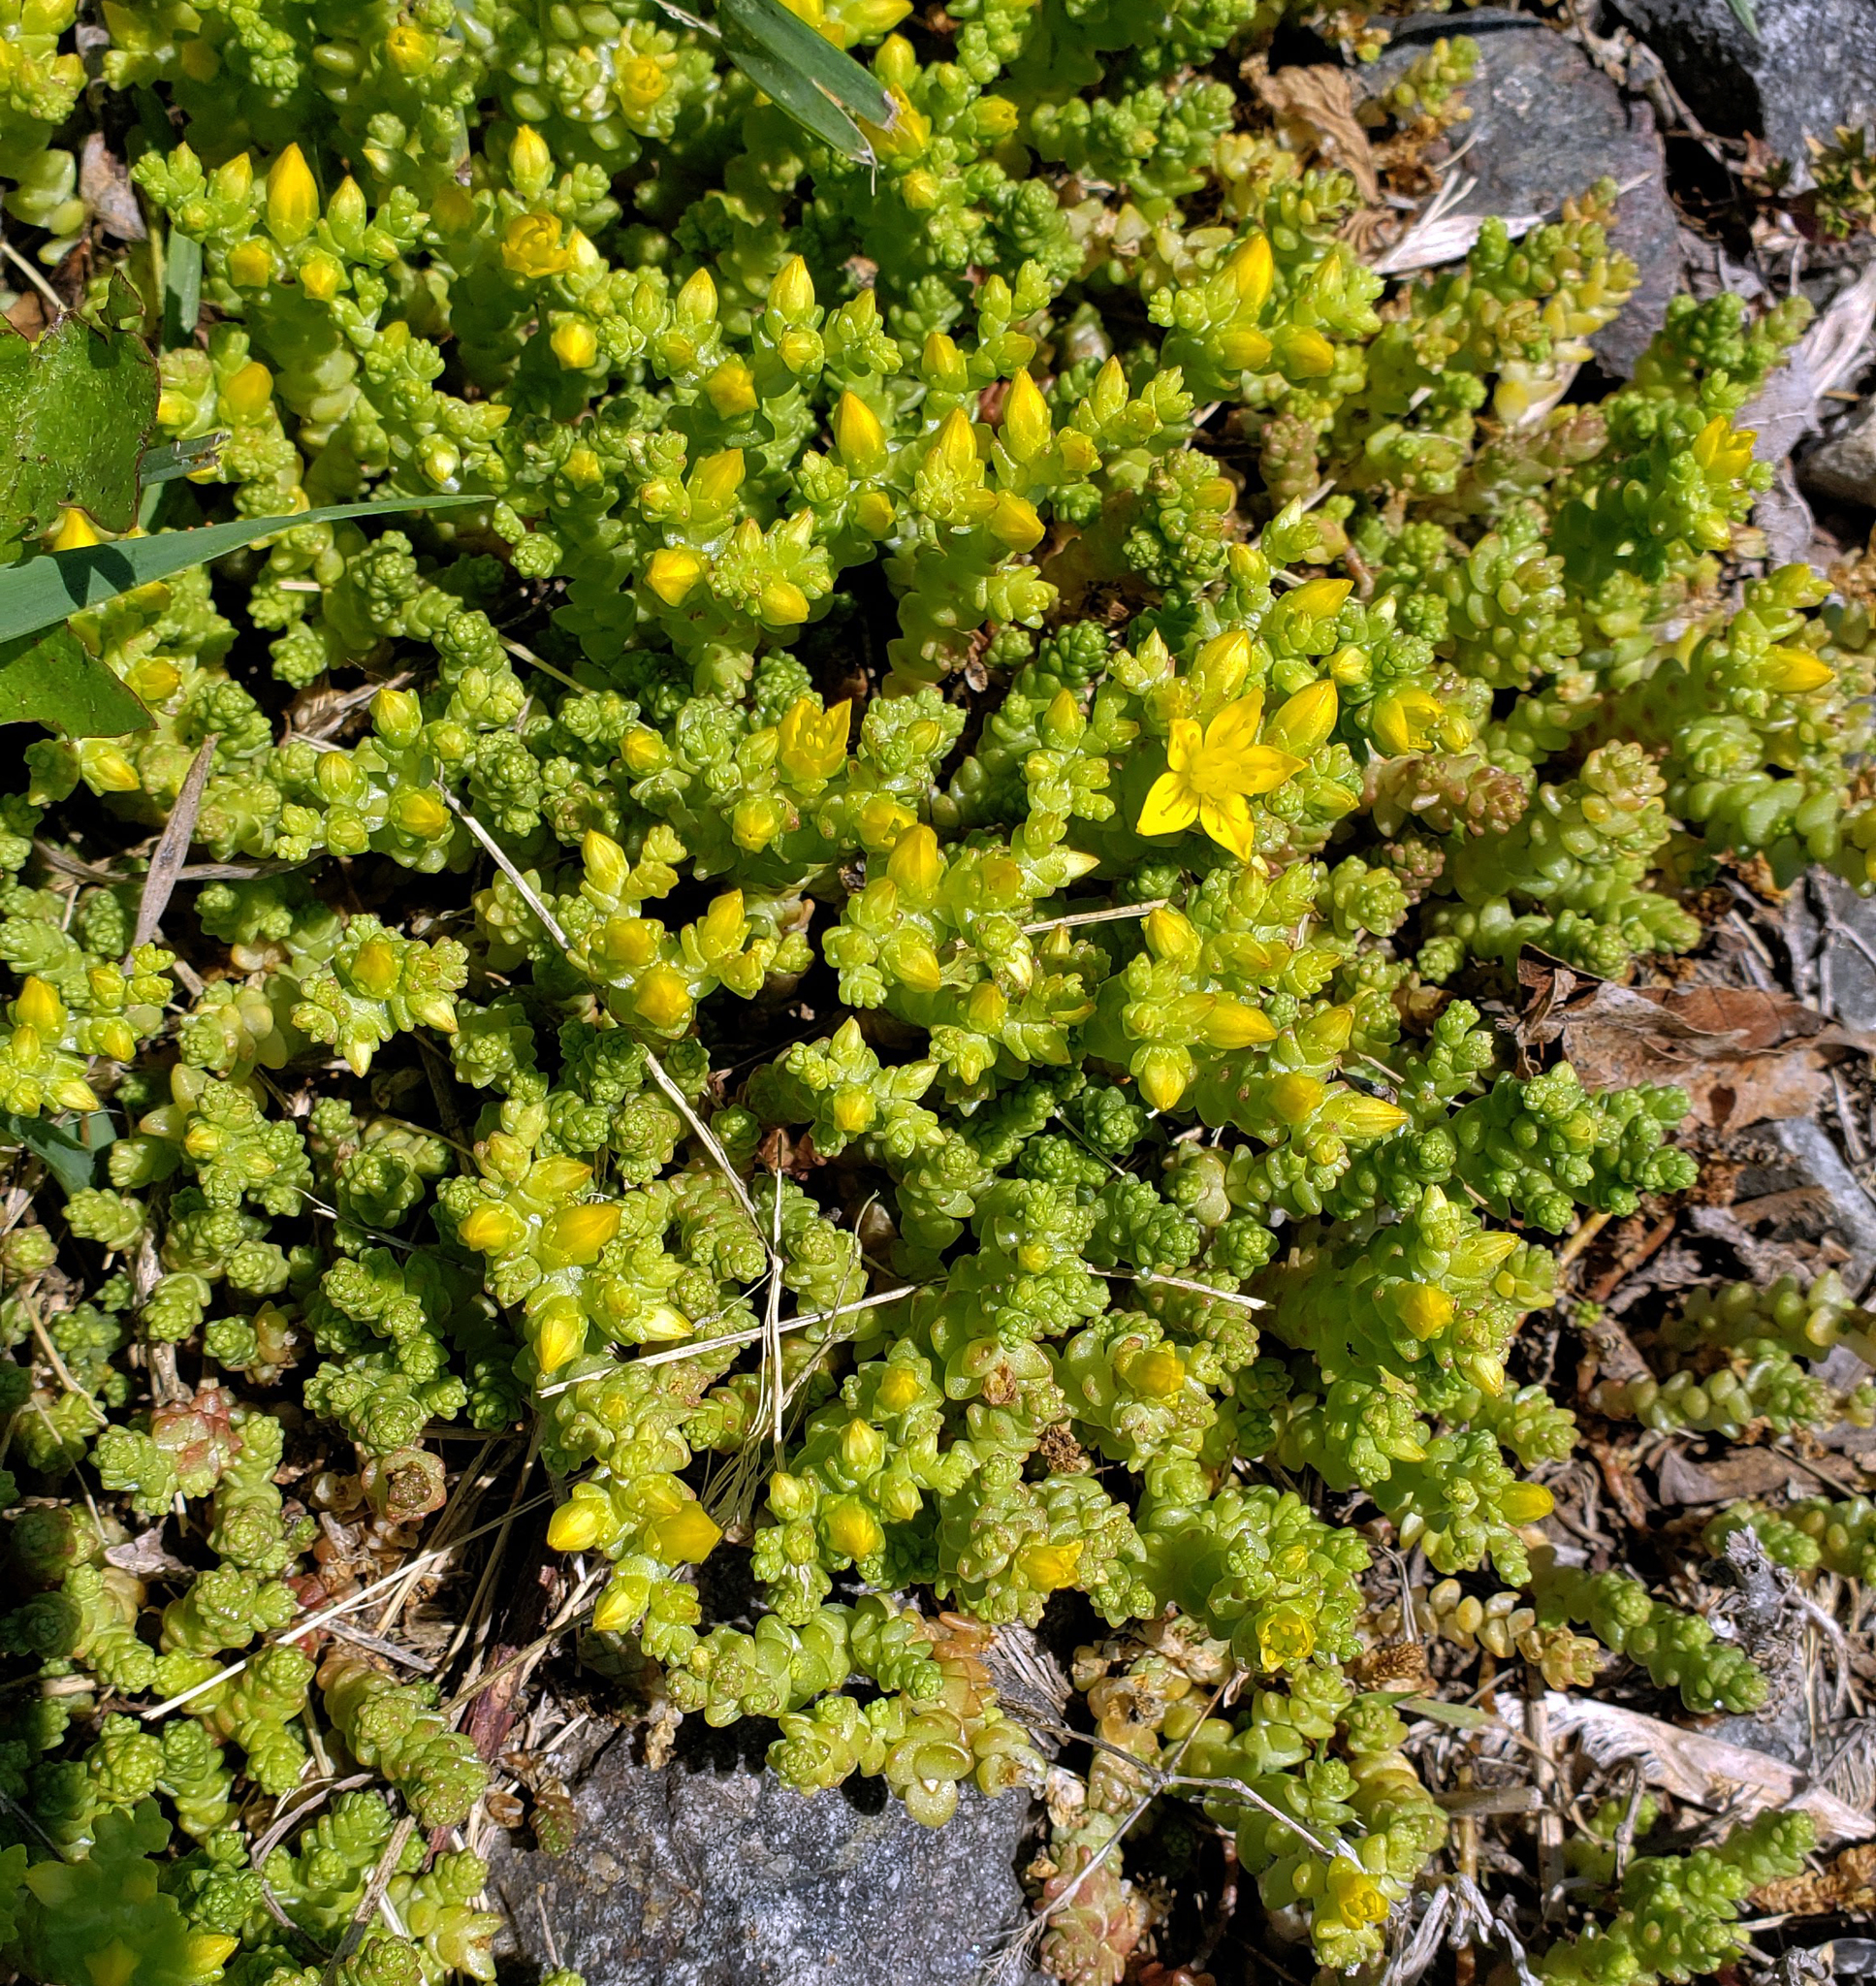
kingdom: Plantae
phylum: Tracheophyta
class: Magnoliopsida
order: Saxifragales
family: Crassulaceae
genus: Sedum
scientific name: Sedum acre
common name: Biting stonecrop
